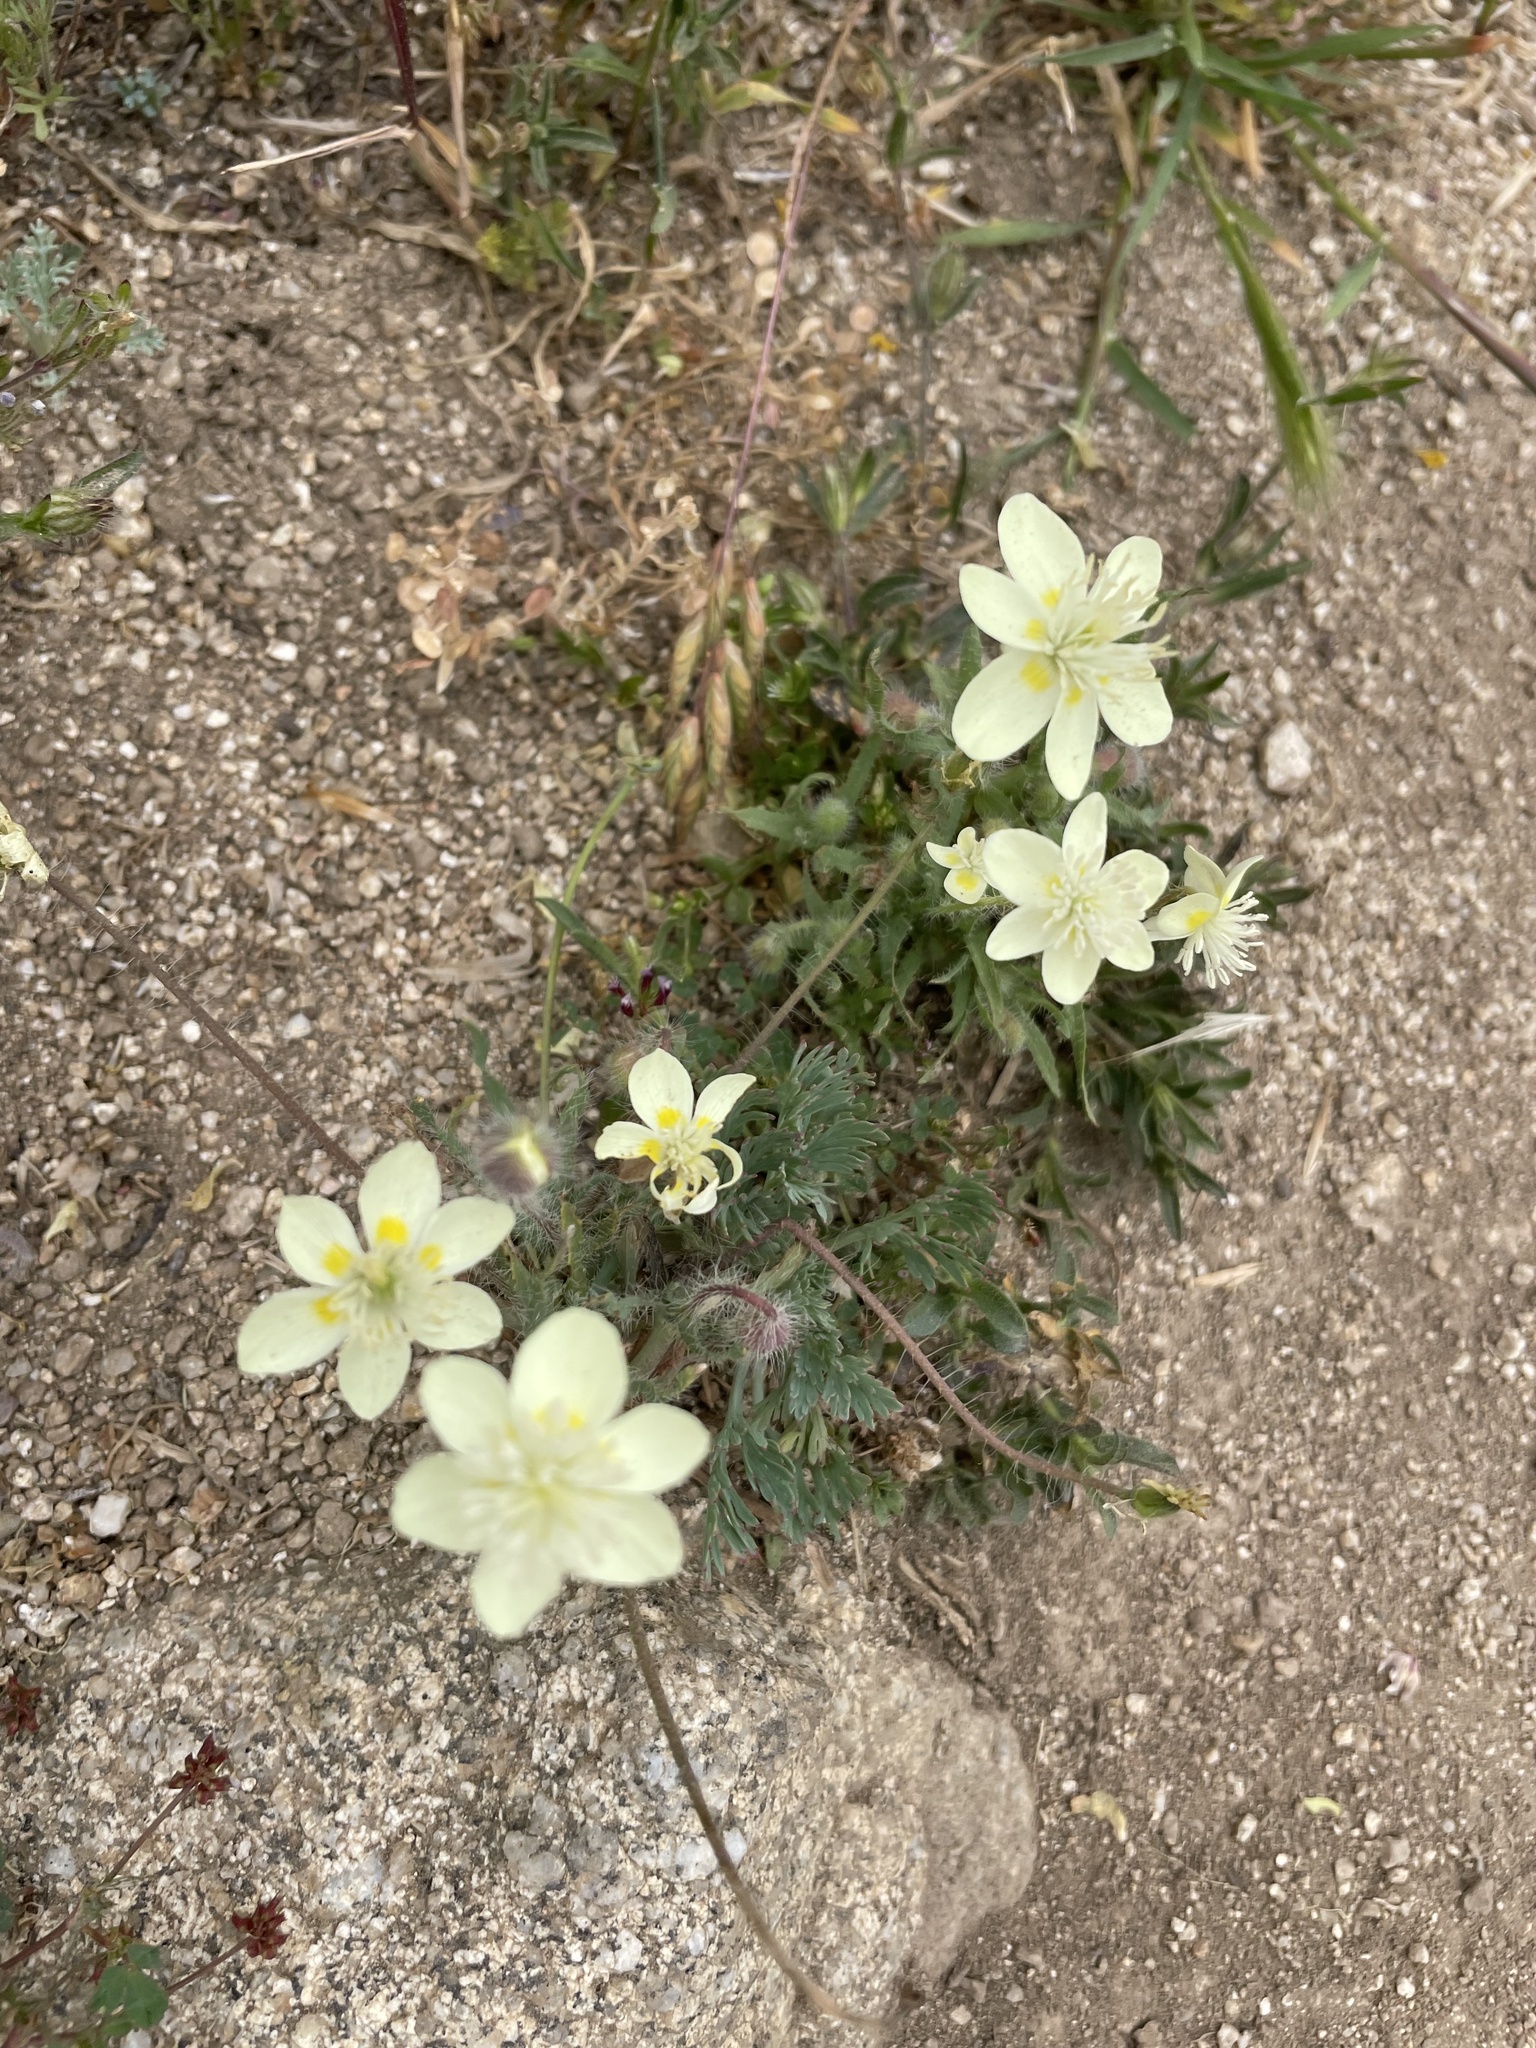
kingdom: Plantae
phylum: Tracheophyta
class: Magnoliopsida
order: Ranunculales
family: Papaveraceae
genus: Platystemon
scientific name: Platystemon californicus
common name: Cream-cups
